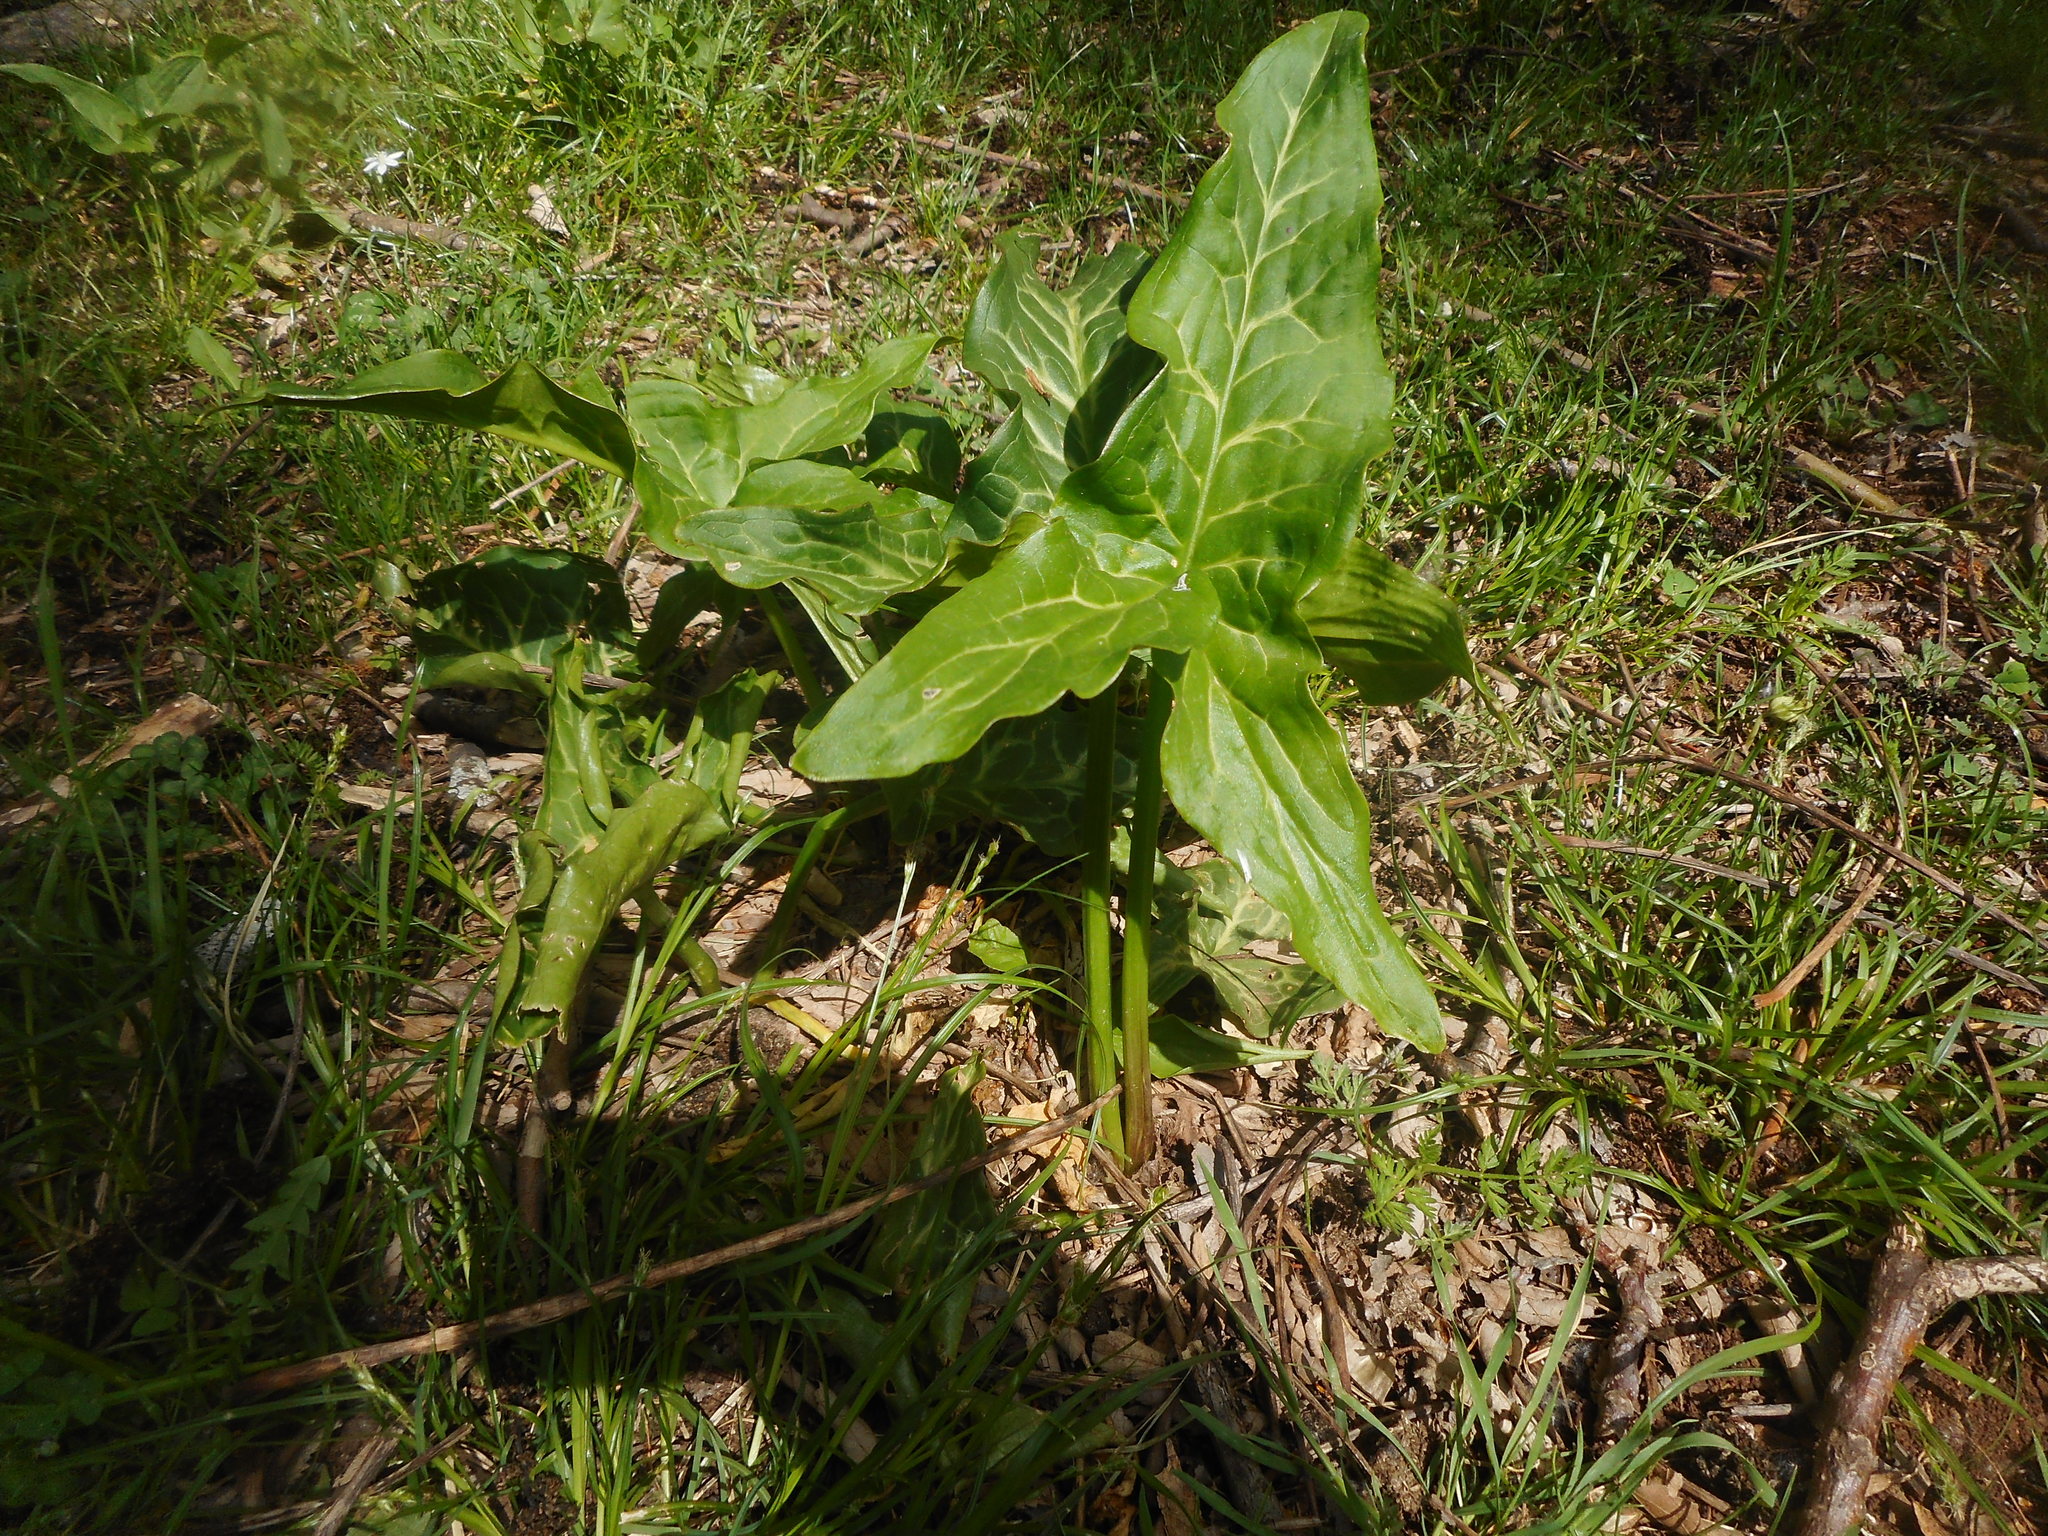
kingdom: Plantae
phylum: Tracheophyta
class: Liliopsida
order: Alismatales
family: Araceae
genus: Arum
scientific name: Arum italicum
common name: Italian lords-and-ladies
